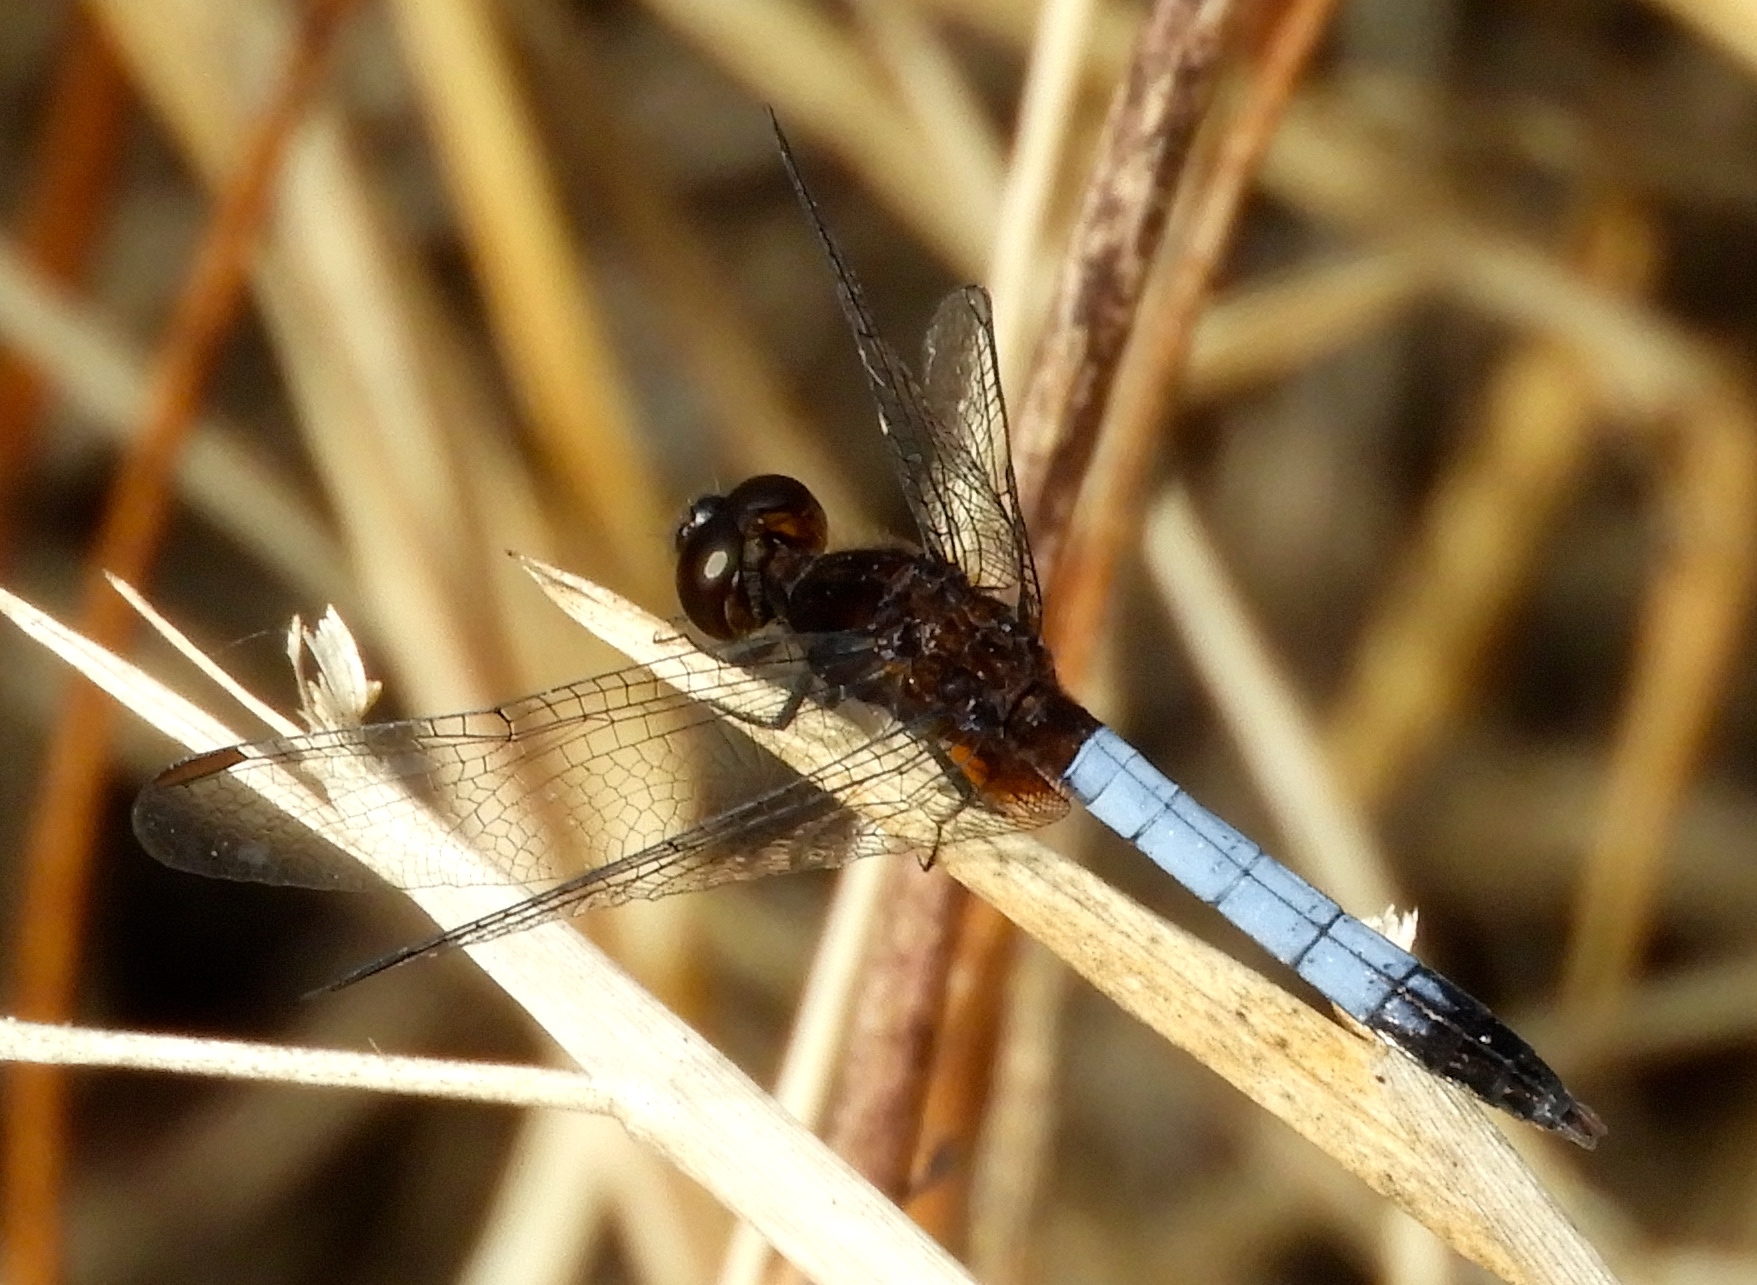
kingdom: Animalia
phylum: Arthropoda
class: Insecta
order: Odonata
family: Libellulidae
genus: Erythrodiplax
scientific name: Erythrodiplax basifusca
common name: Plateau dragonlet
